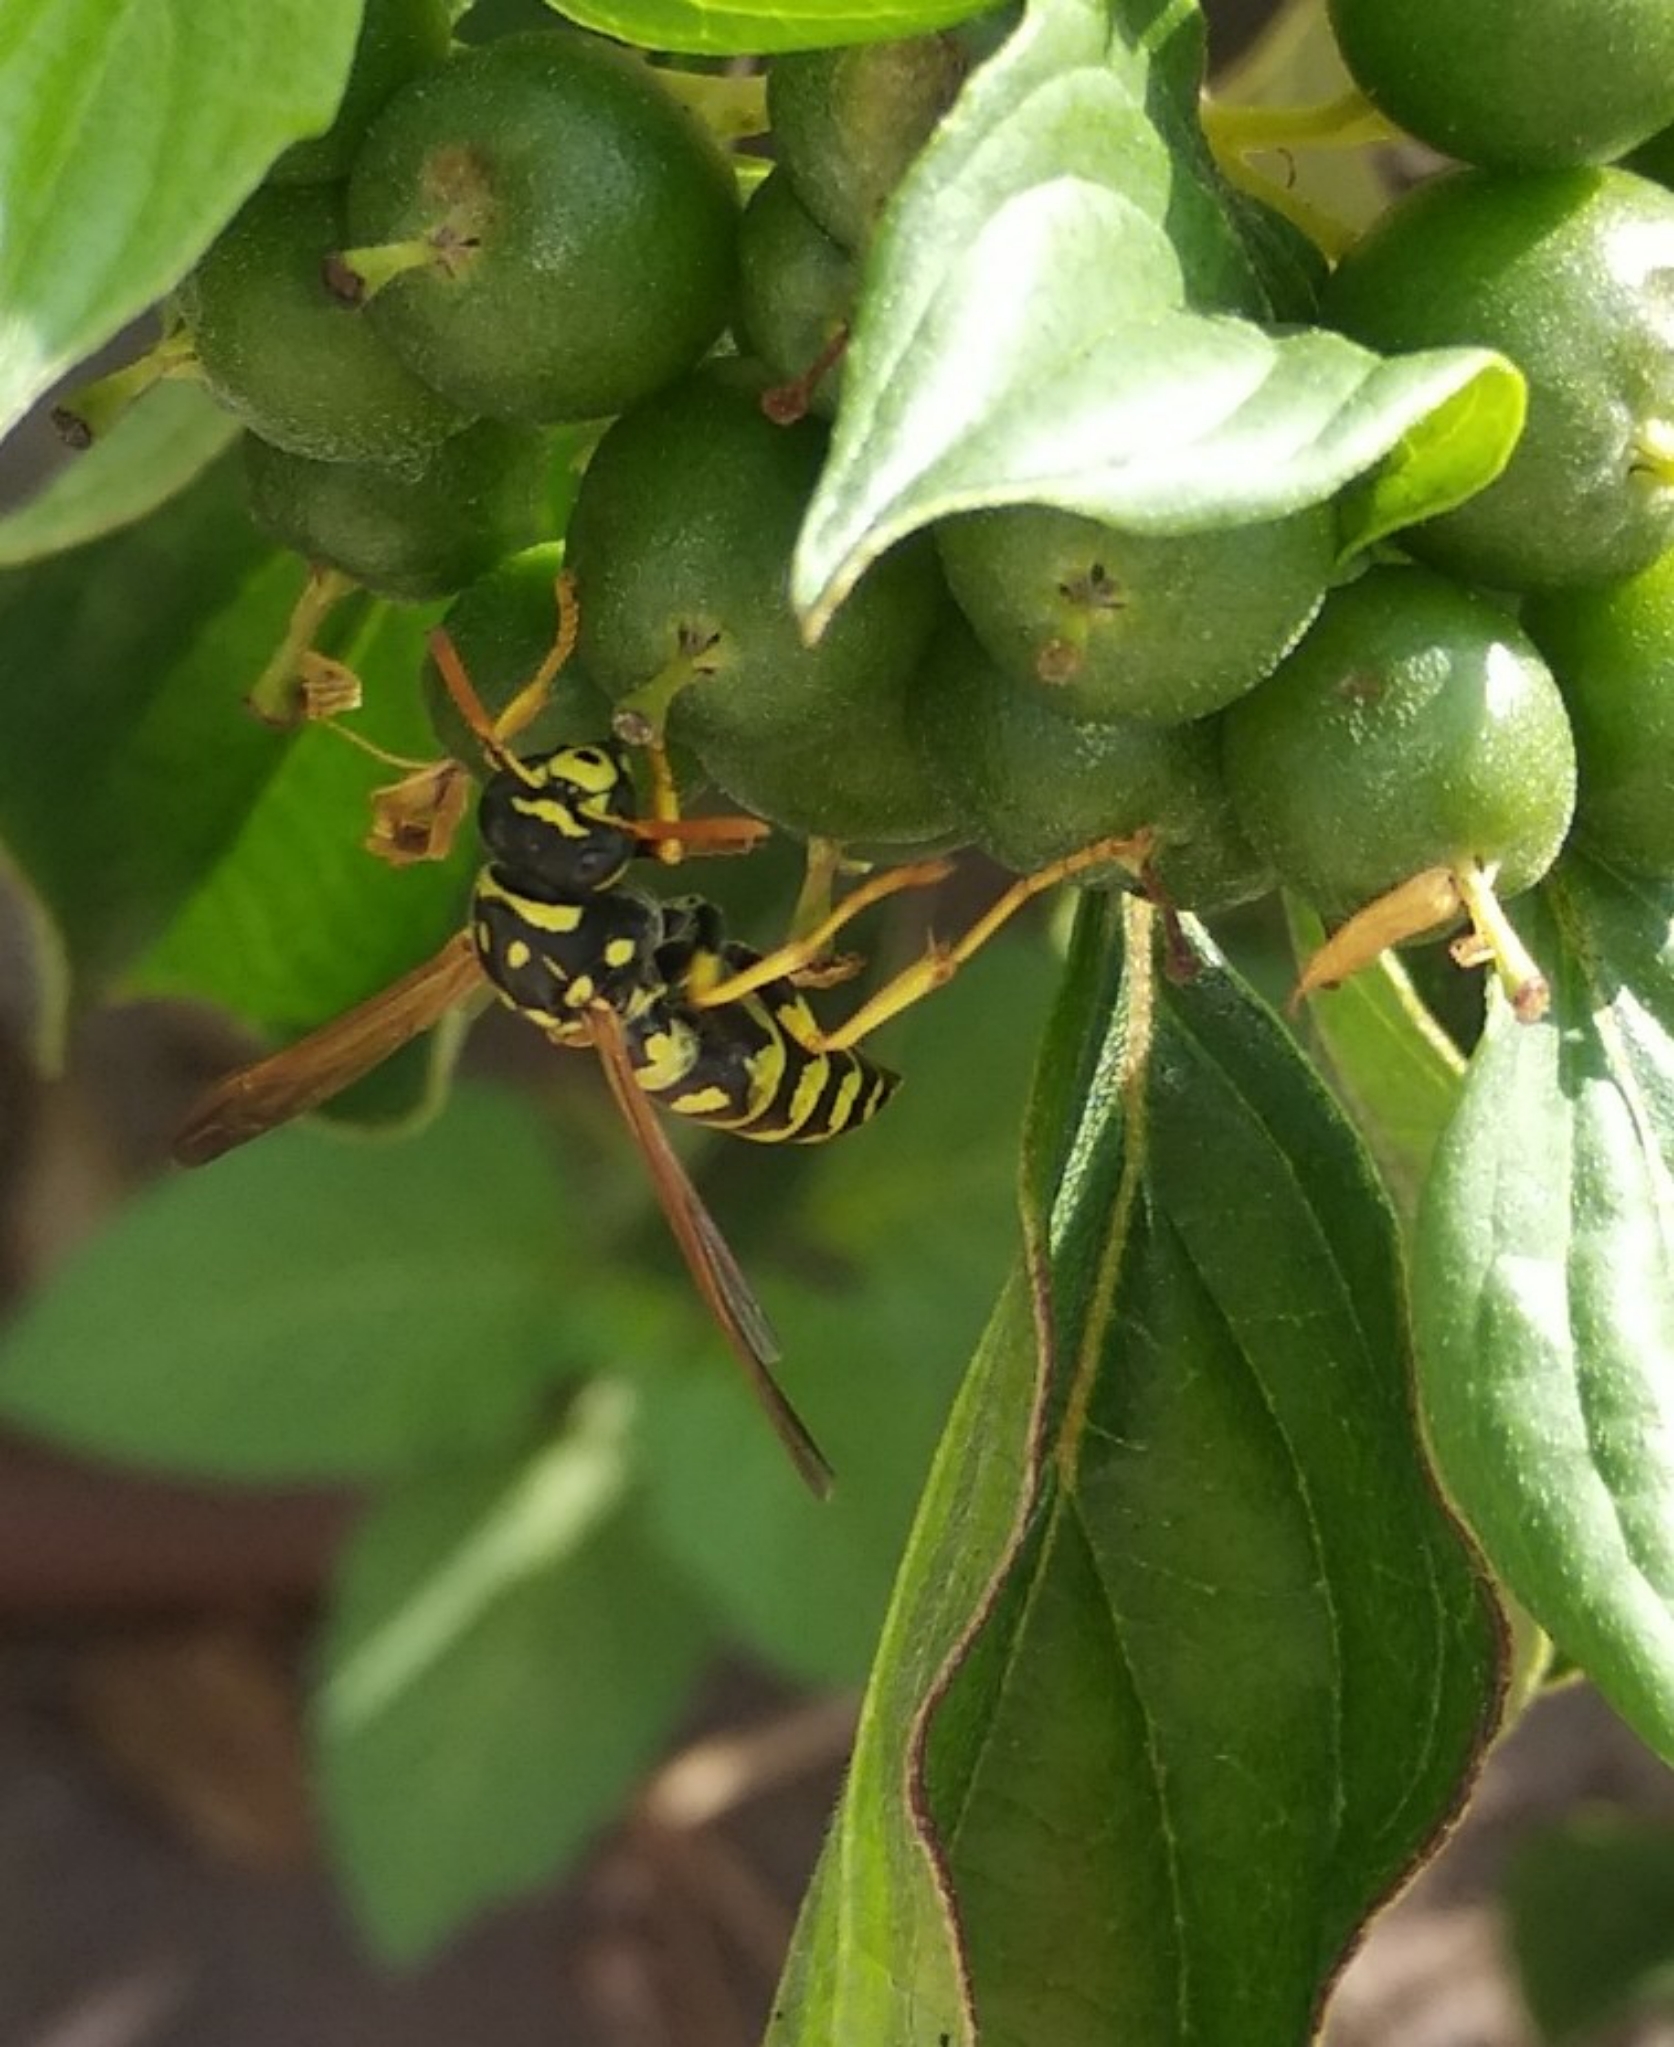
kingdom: Animalia
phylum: Arthropoda
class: Insecta
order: Hymenoptera
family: Eumenidae
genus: Polistes
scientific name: Polistes dominula
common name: Paper wasp
